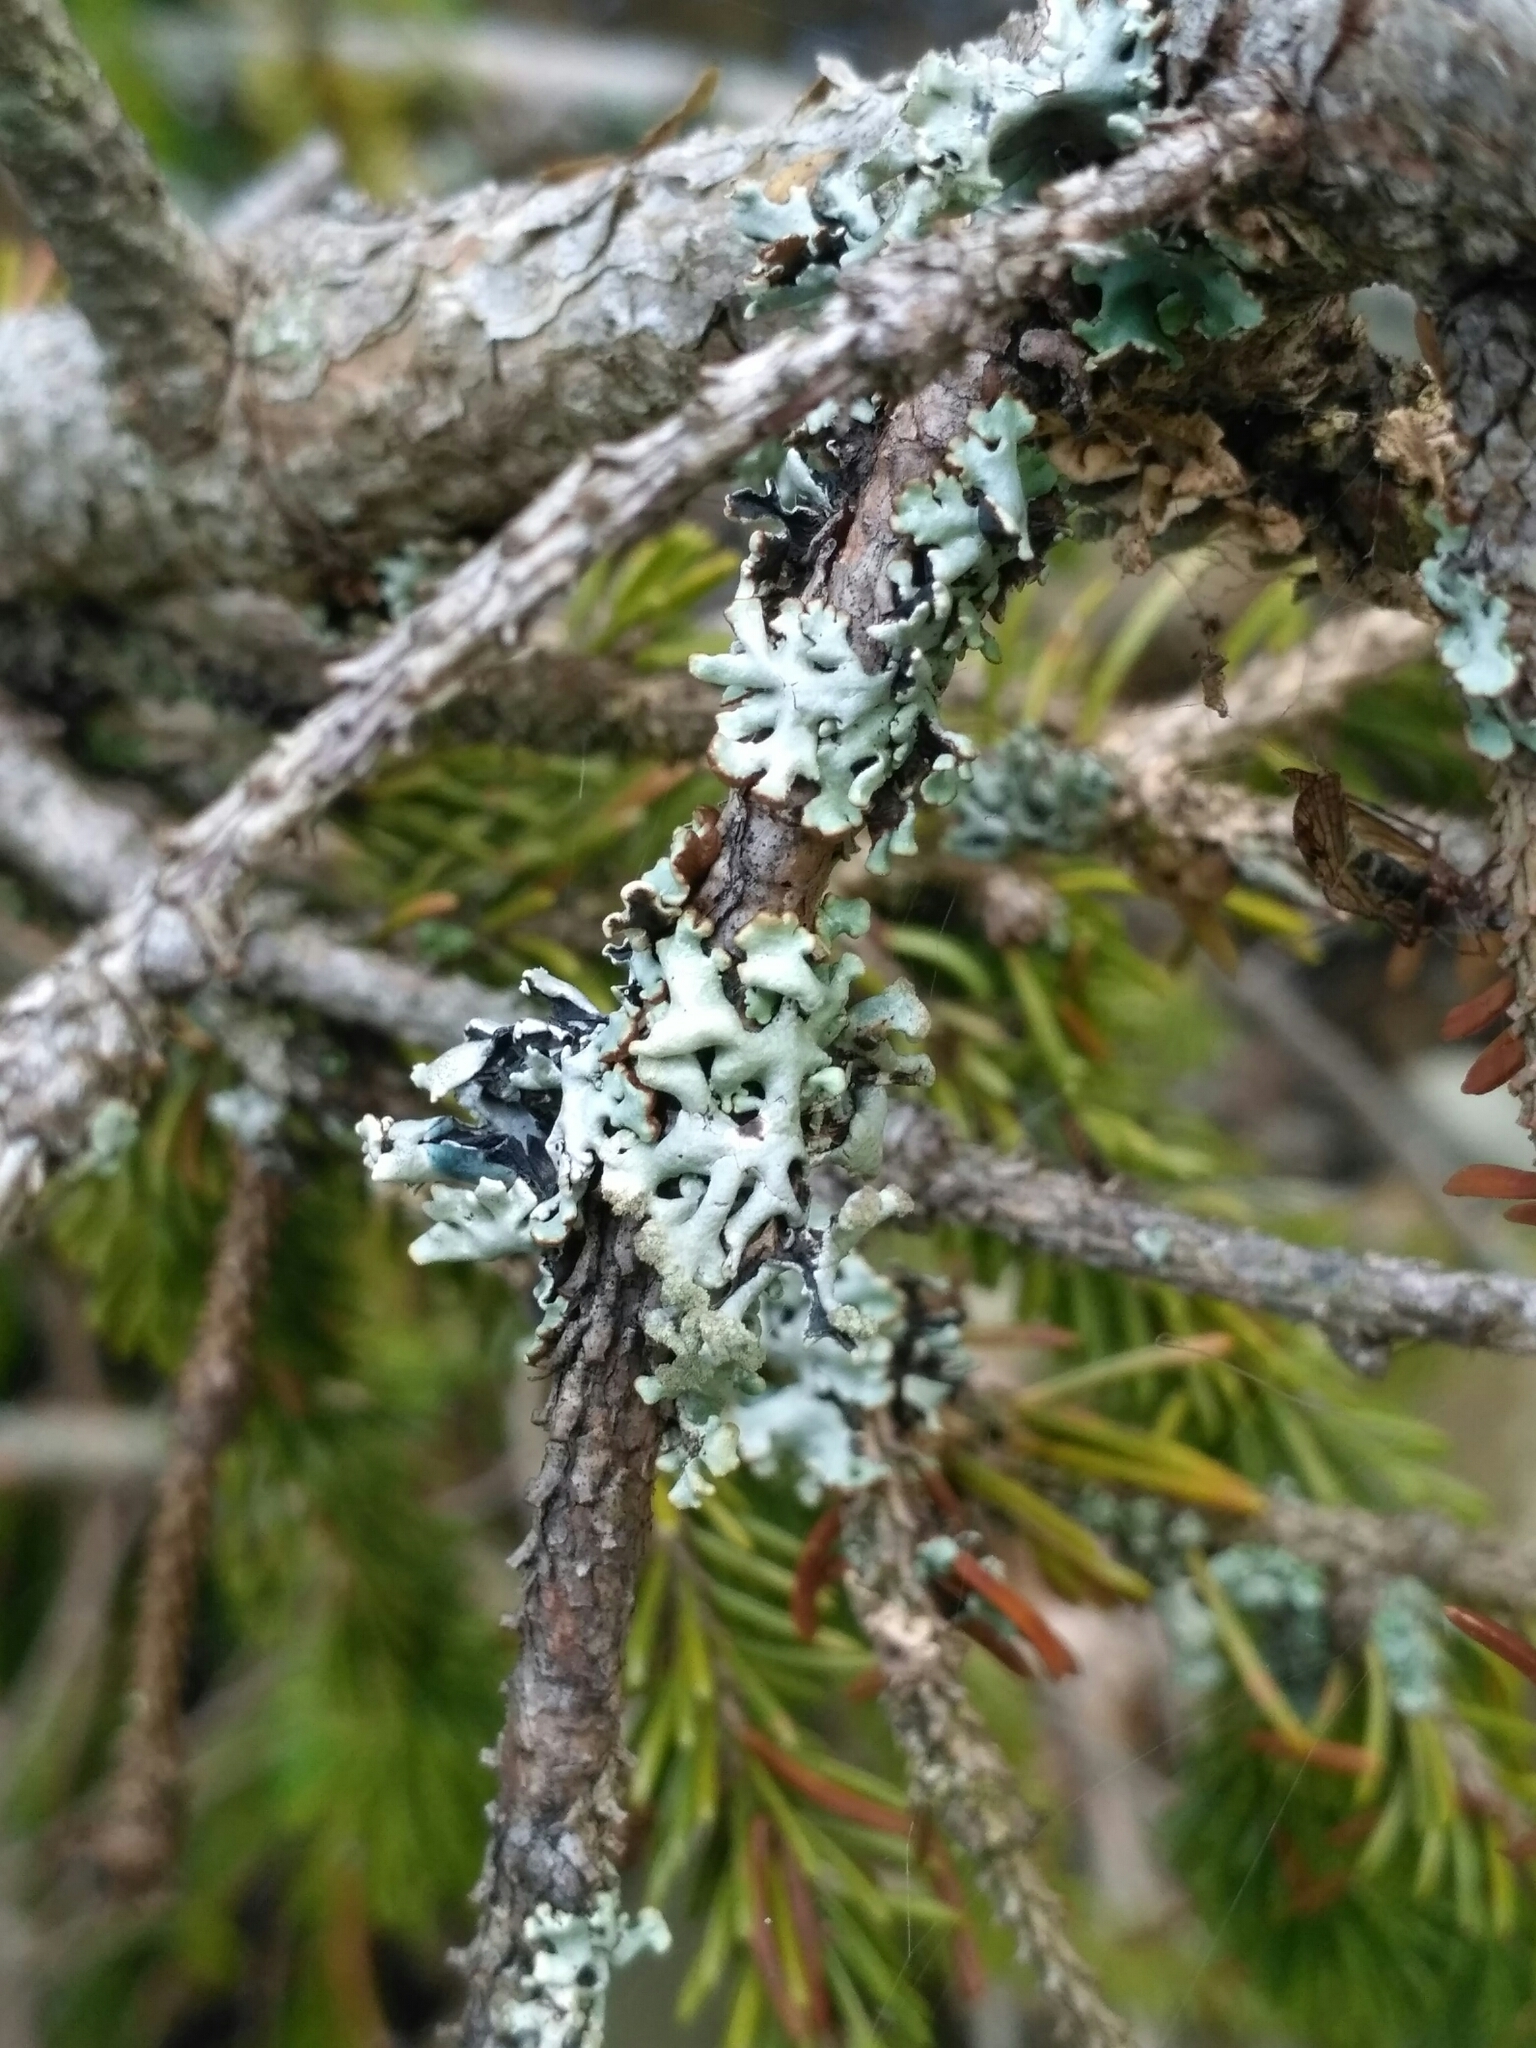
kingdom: Fungi
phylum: Ascomycota
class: Lecanoromycetes
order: Lecanorales
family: Parmeliaceae
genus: Hypogymnia
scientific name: Hypogymnia tubulosa
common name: Powder-headed tube lichen
